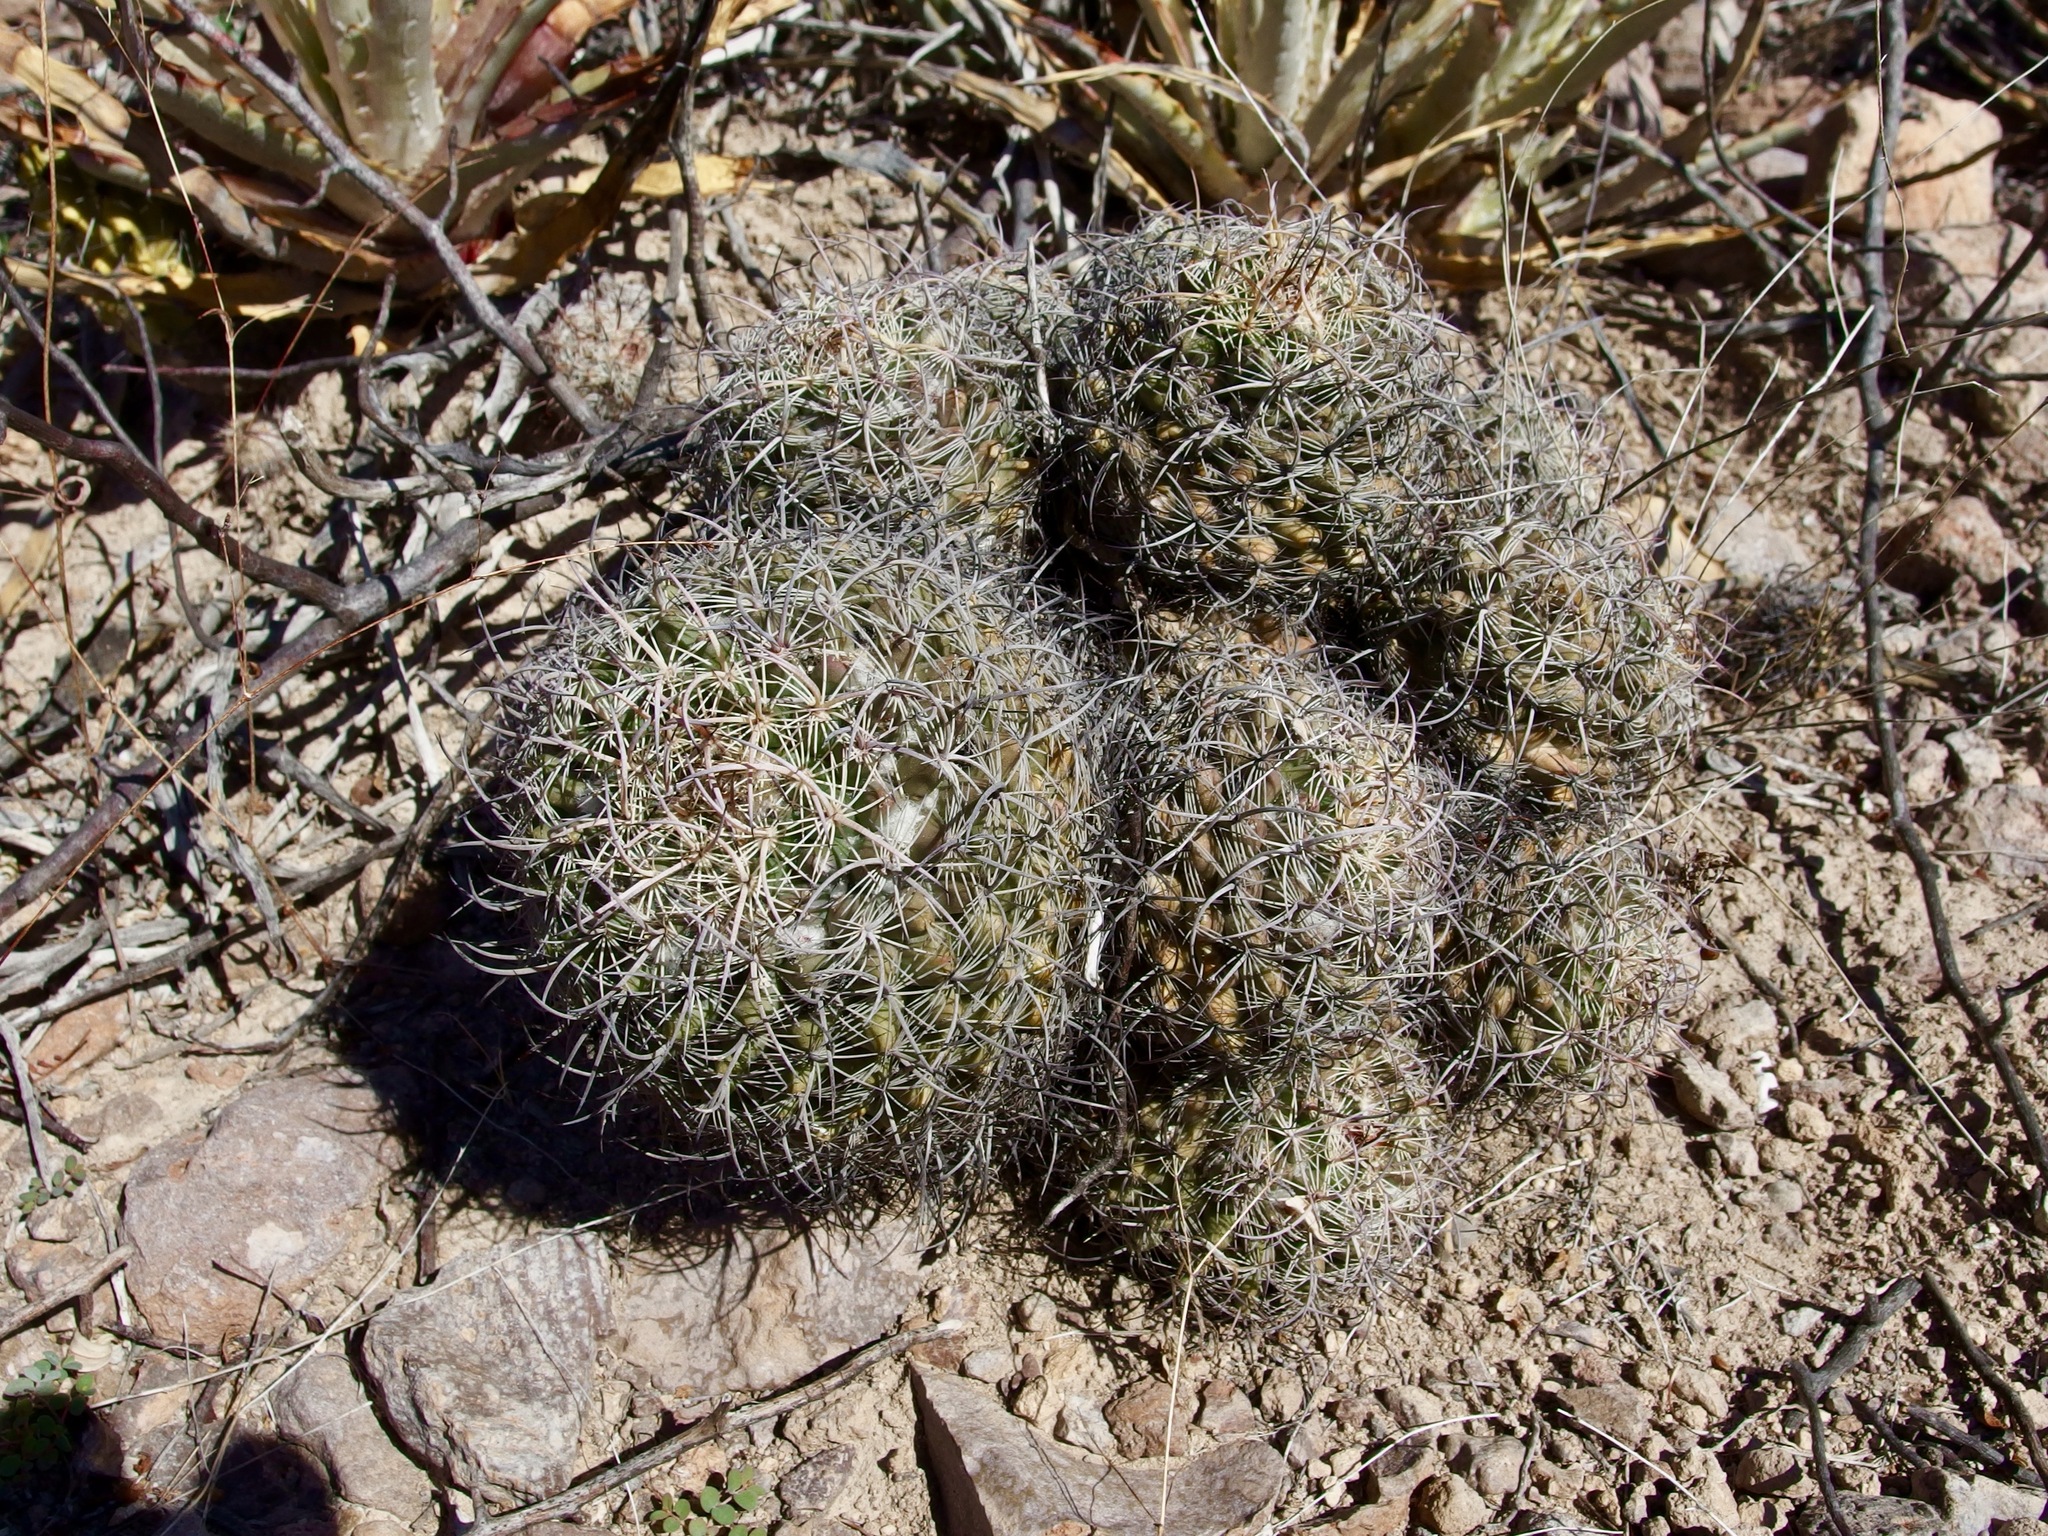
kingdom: Plantae
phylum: Tracheophyta
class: Magnoliopsida
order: Caryophyllales
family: Cactaceae
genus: Mammillaria
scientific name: Mammillaria johnstonii
